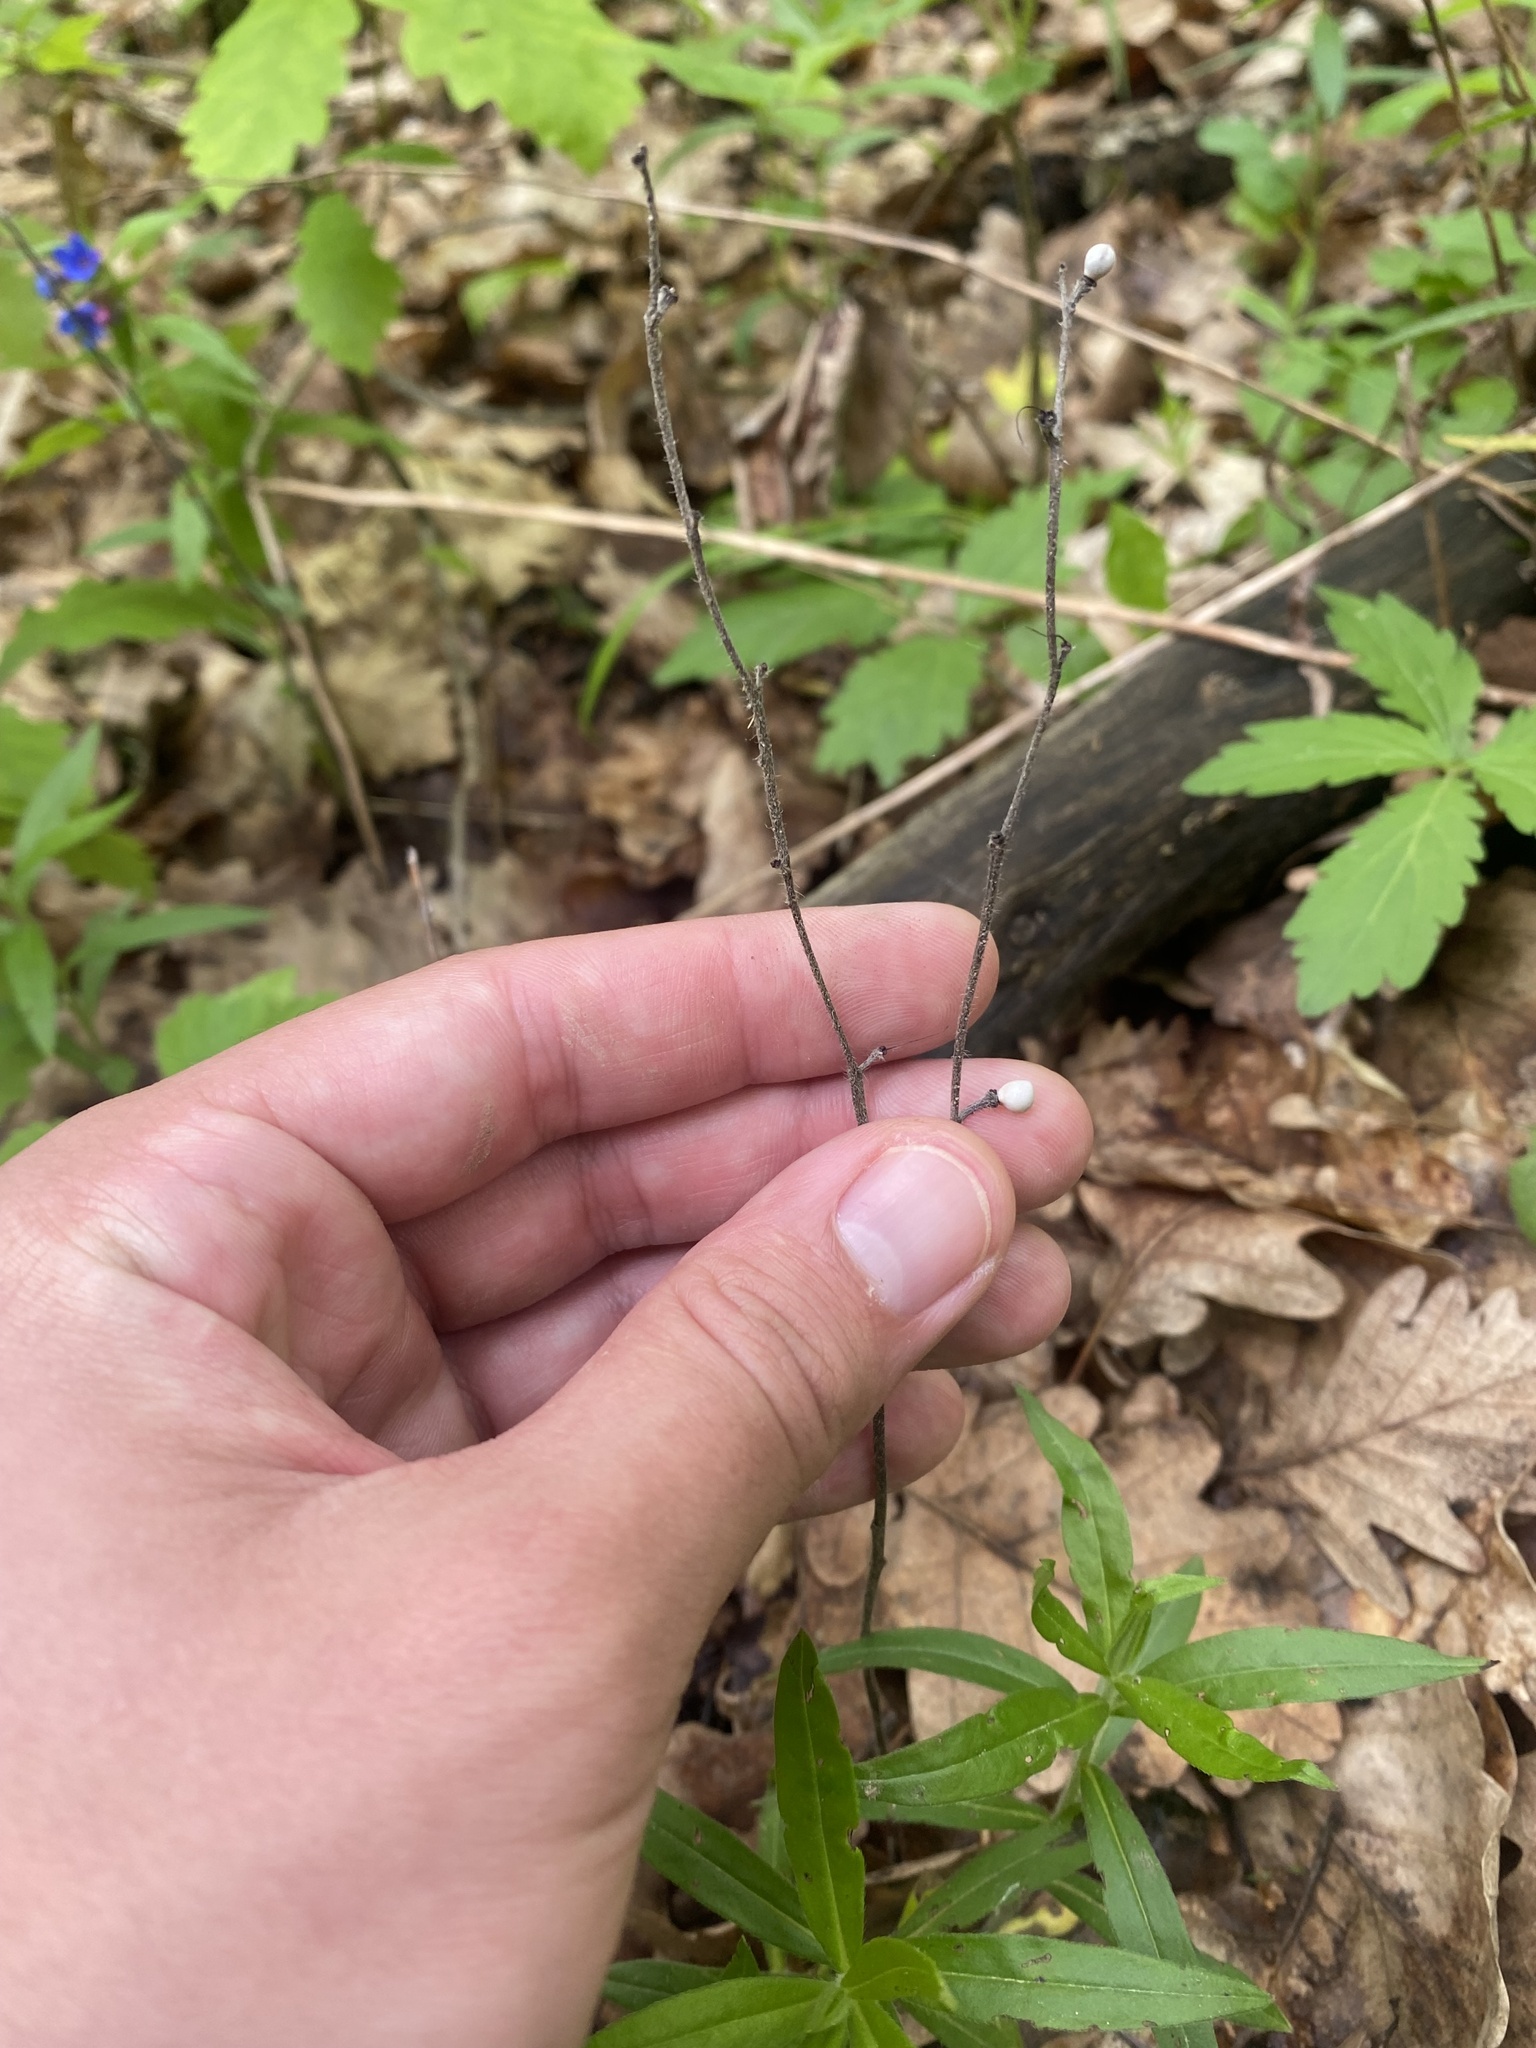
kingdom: Plantae
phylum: Tracheophyta
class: Magnoliopsida
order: Boraginales
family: Boraginaceae
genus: Aegonychon
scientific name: Aegonychon purpurocaeruleum
